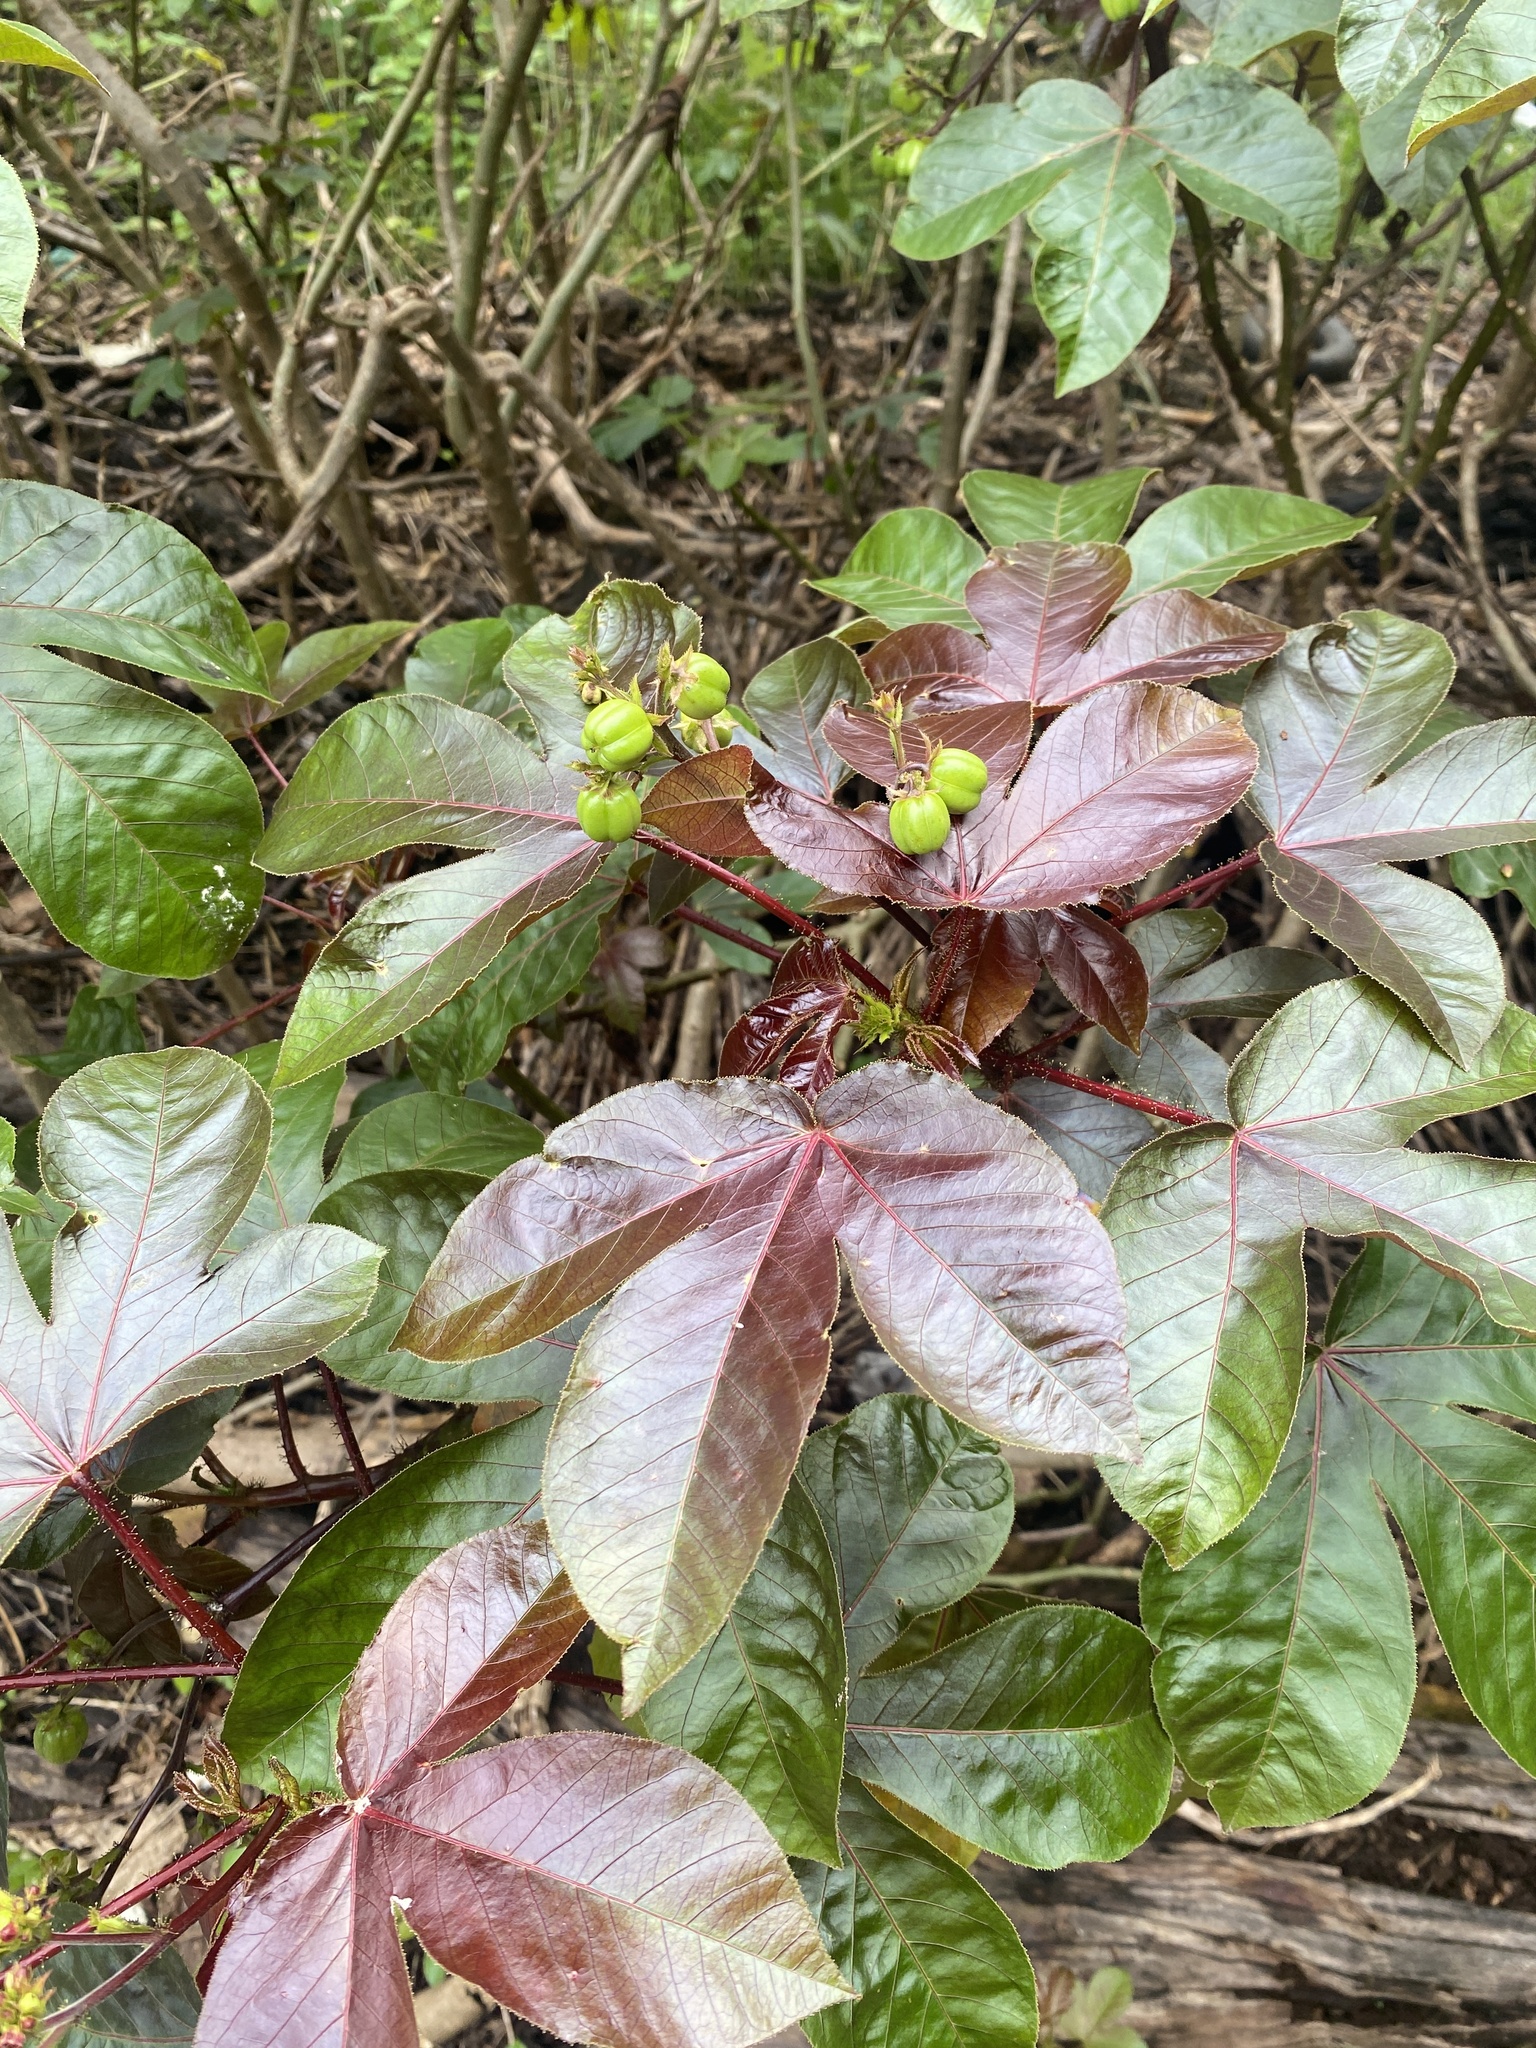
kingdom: Plantae
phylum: Tracheophyta
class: Magnoliopsida
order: Malpighiales
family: Euphorbiaceae
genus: Jatropha
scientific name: Jatropha gossypiifolia
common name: Bellyache bush
